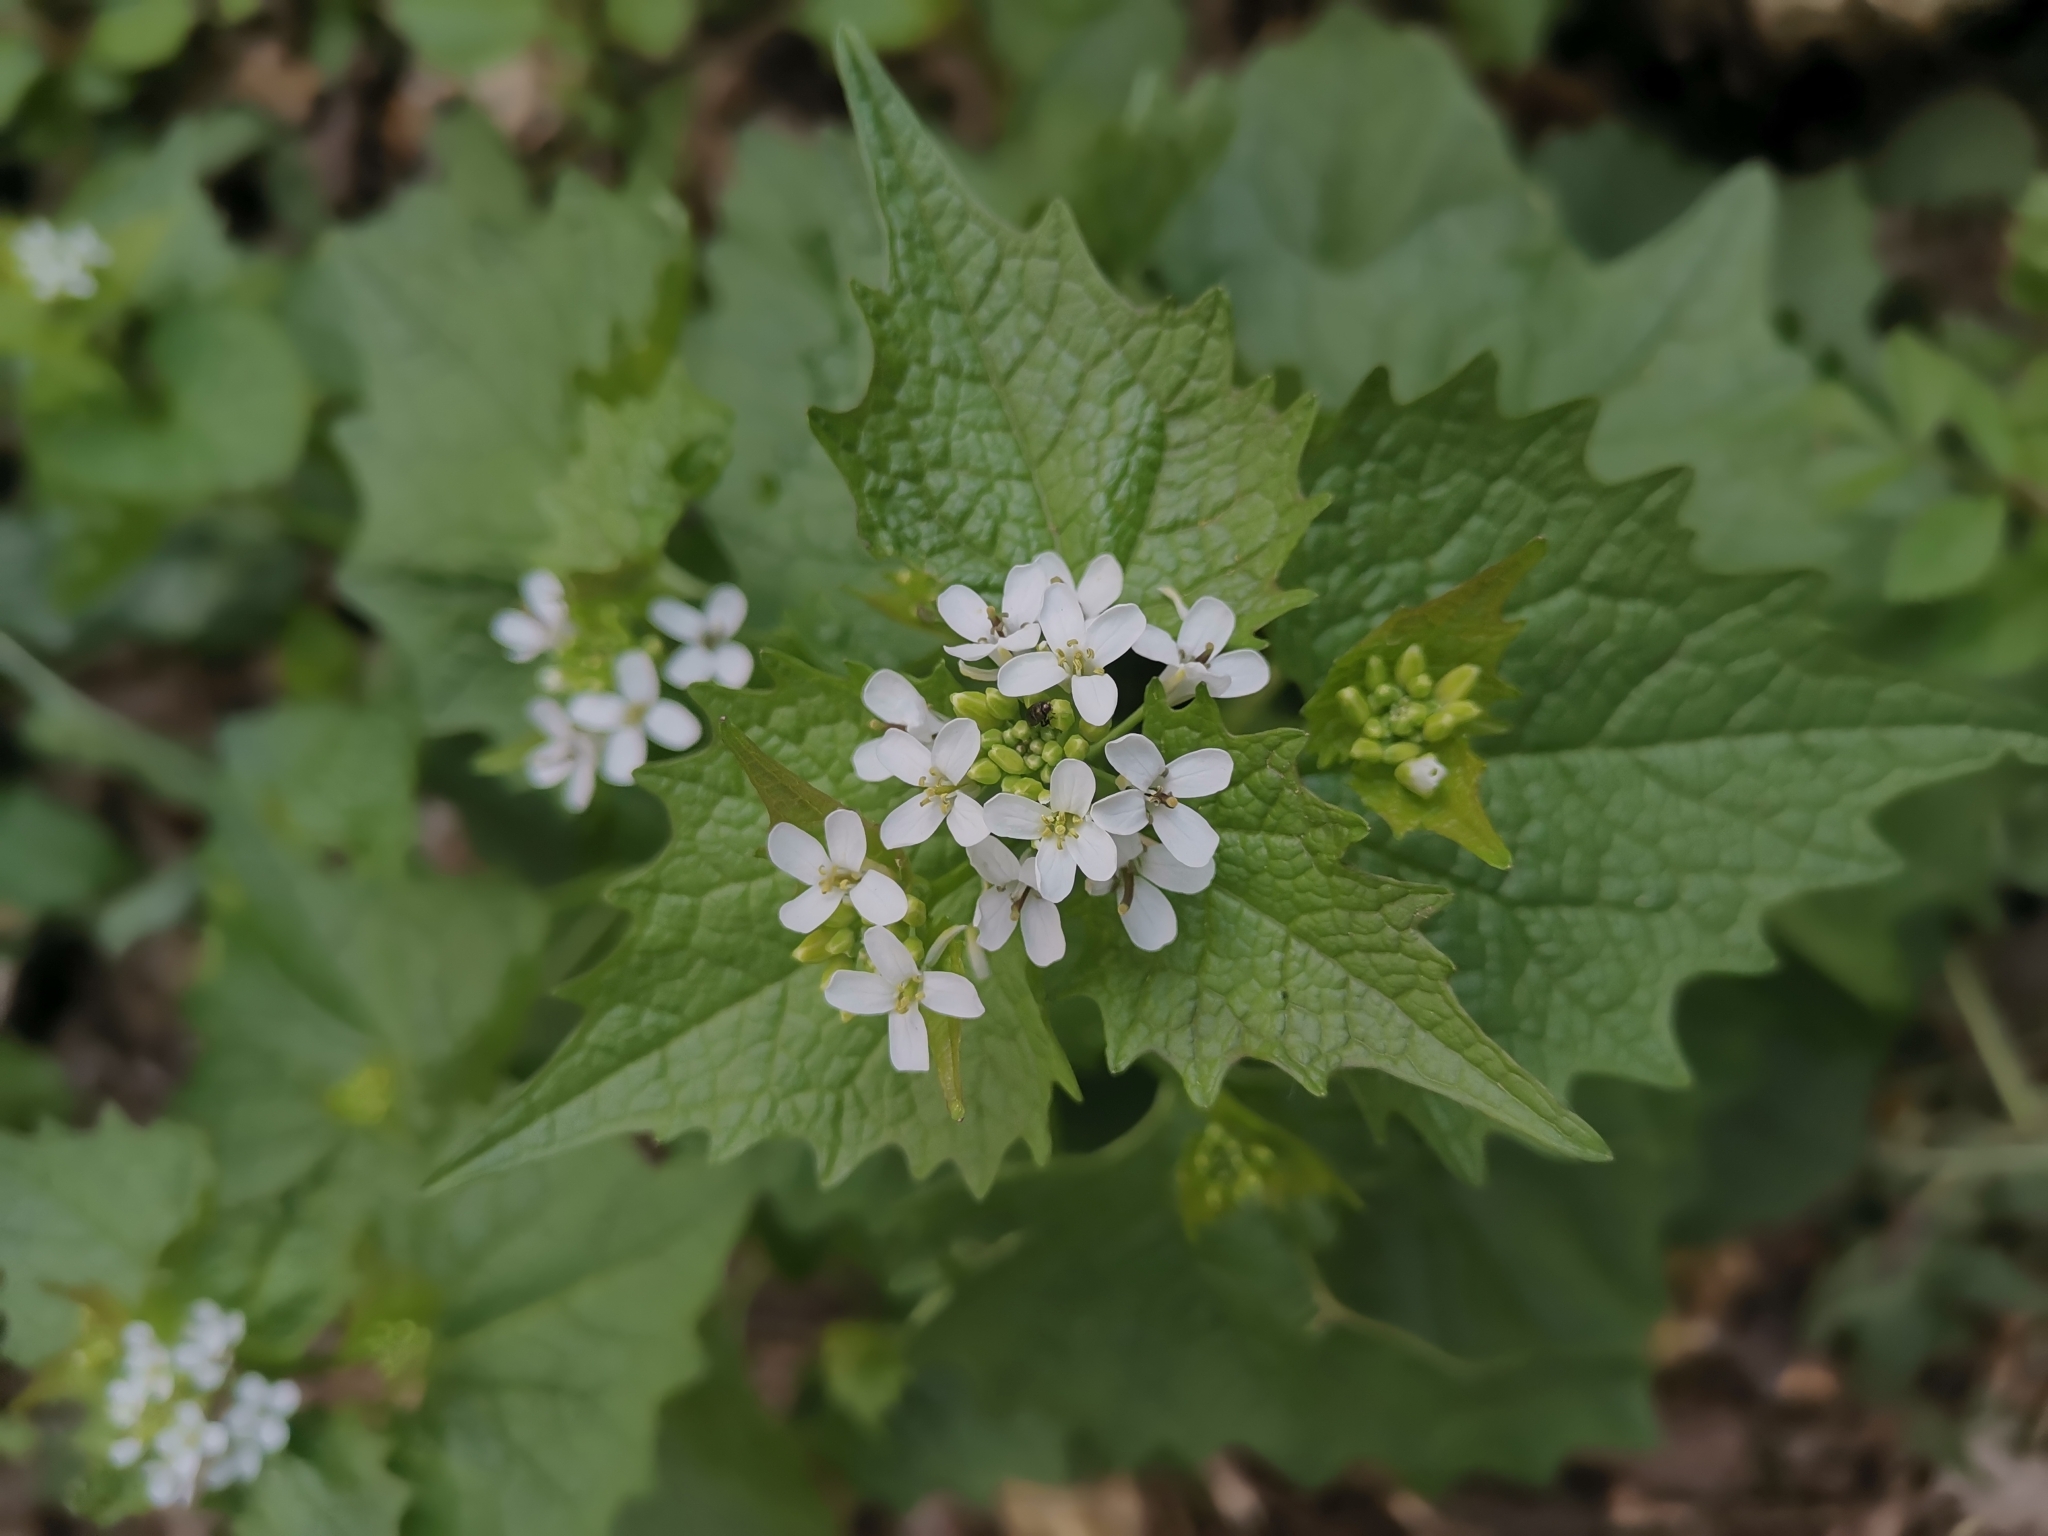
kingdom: Plantae
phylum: Tracheophyta
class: Magnoliopsida
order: Brassicales
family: Brassicaceae
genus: Alliaria
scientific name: Alliaria petiolata
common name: Garlic mustard
